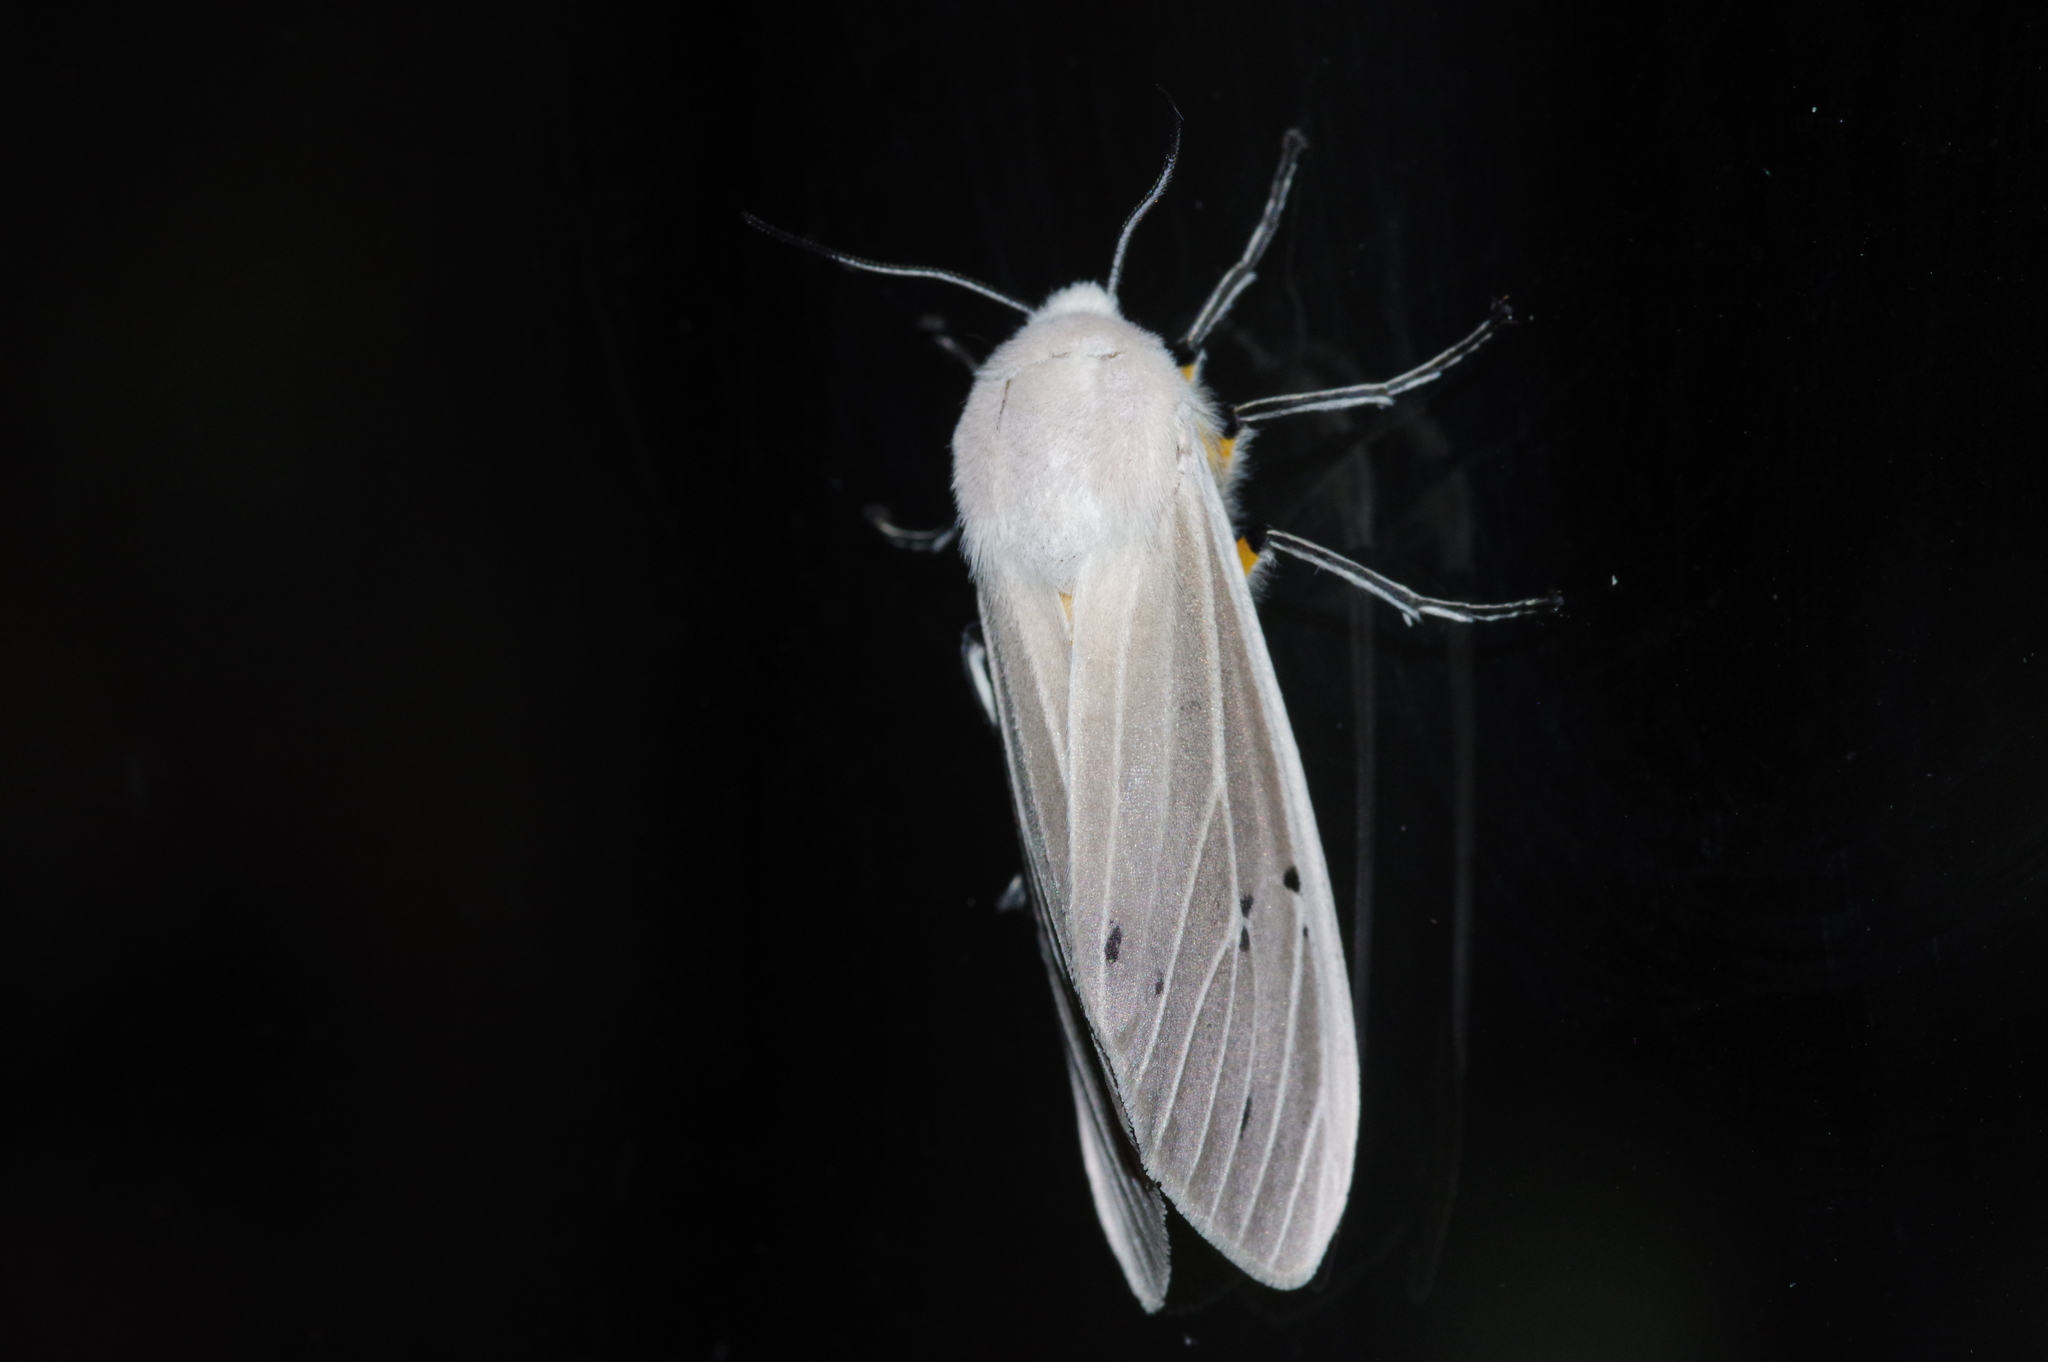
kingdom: Animalia
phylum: Arthropoda
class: Insecta
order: Lepidoptera
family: Erebidae
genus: Creatonotos
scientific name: Creatonotos transiens
